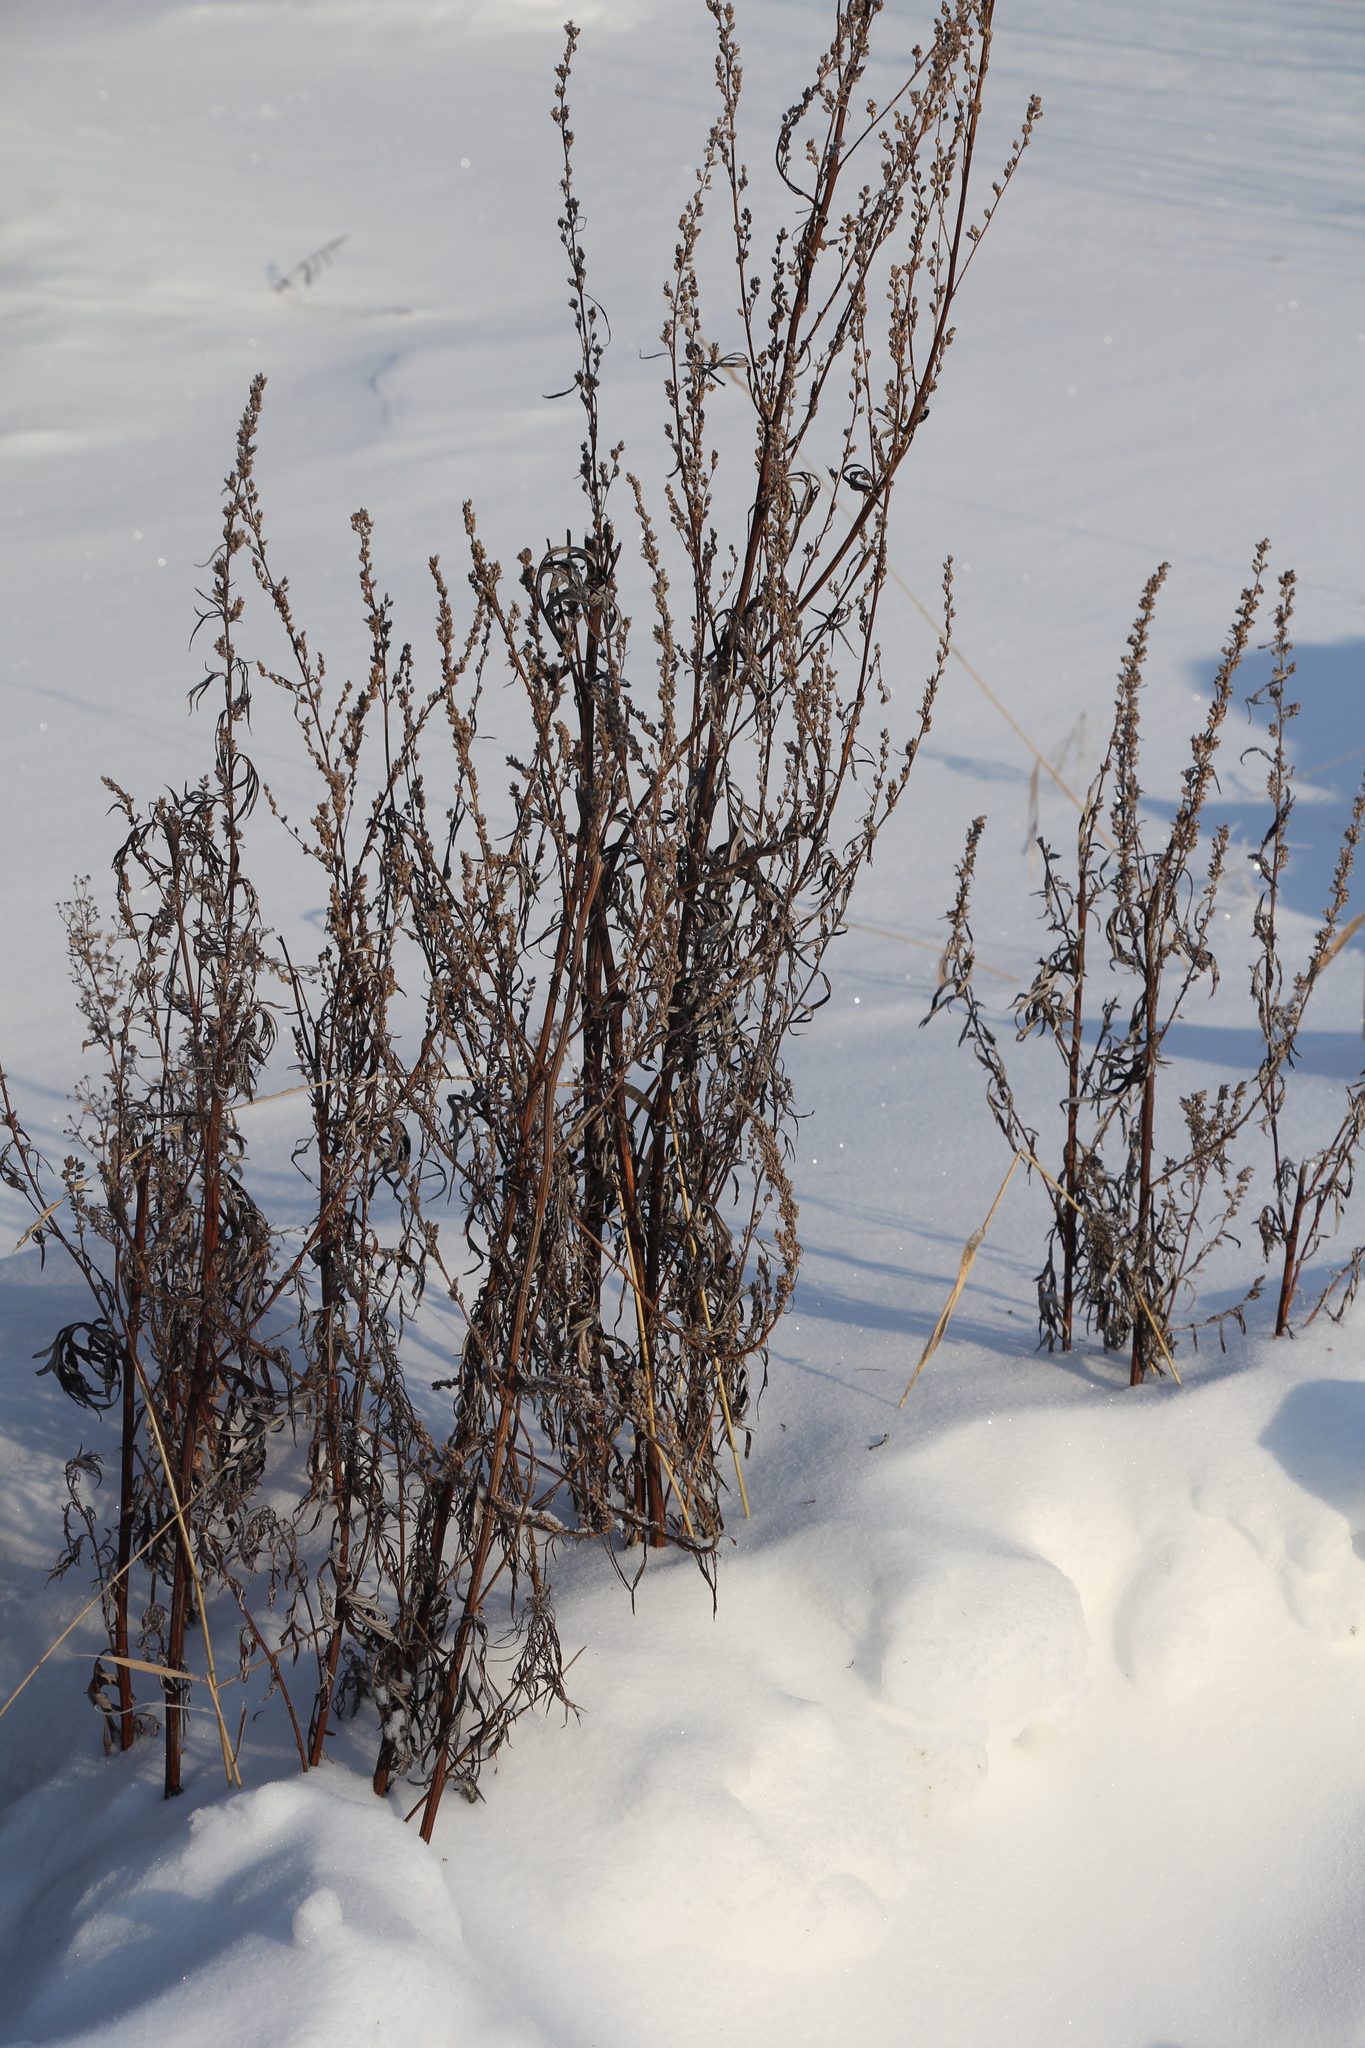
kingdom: Plantae
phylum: Tracheophyta
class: Magnoliopsida
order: Asterales
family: Asteraceae
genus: Artemisia
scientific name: Artemisia vulgaris
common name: Mugwort
